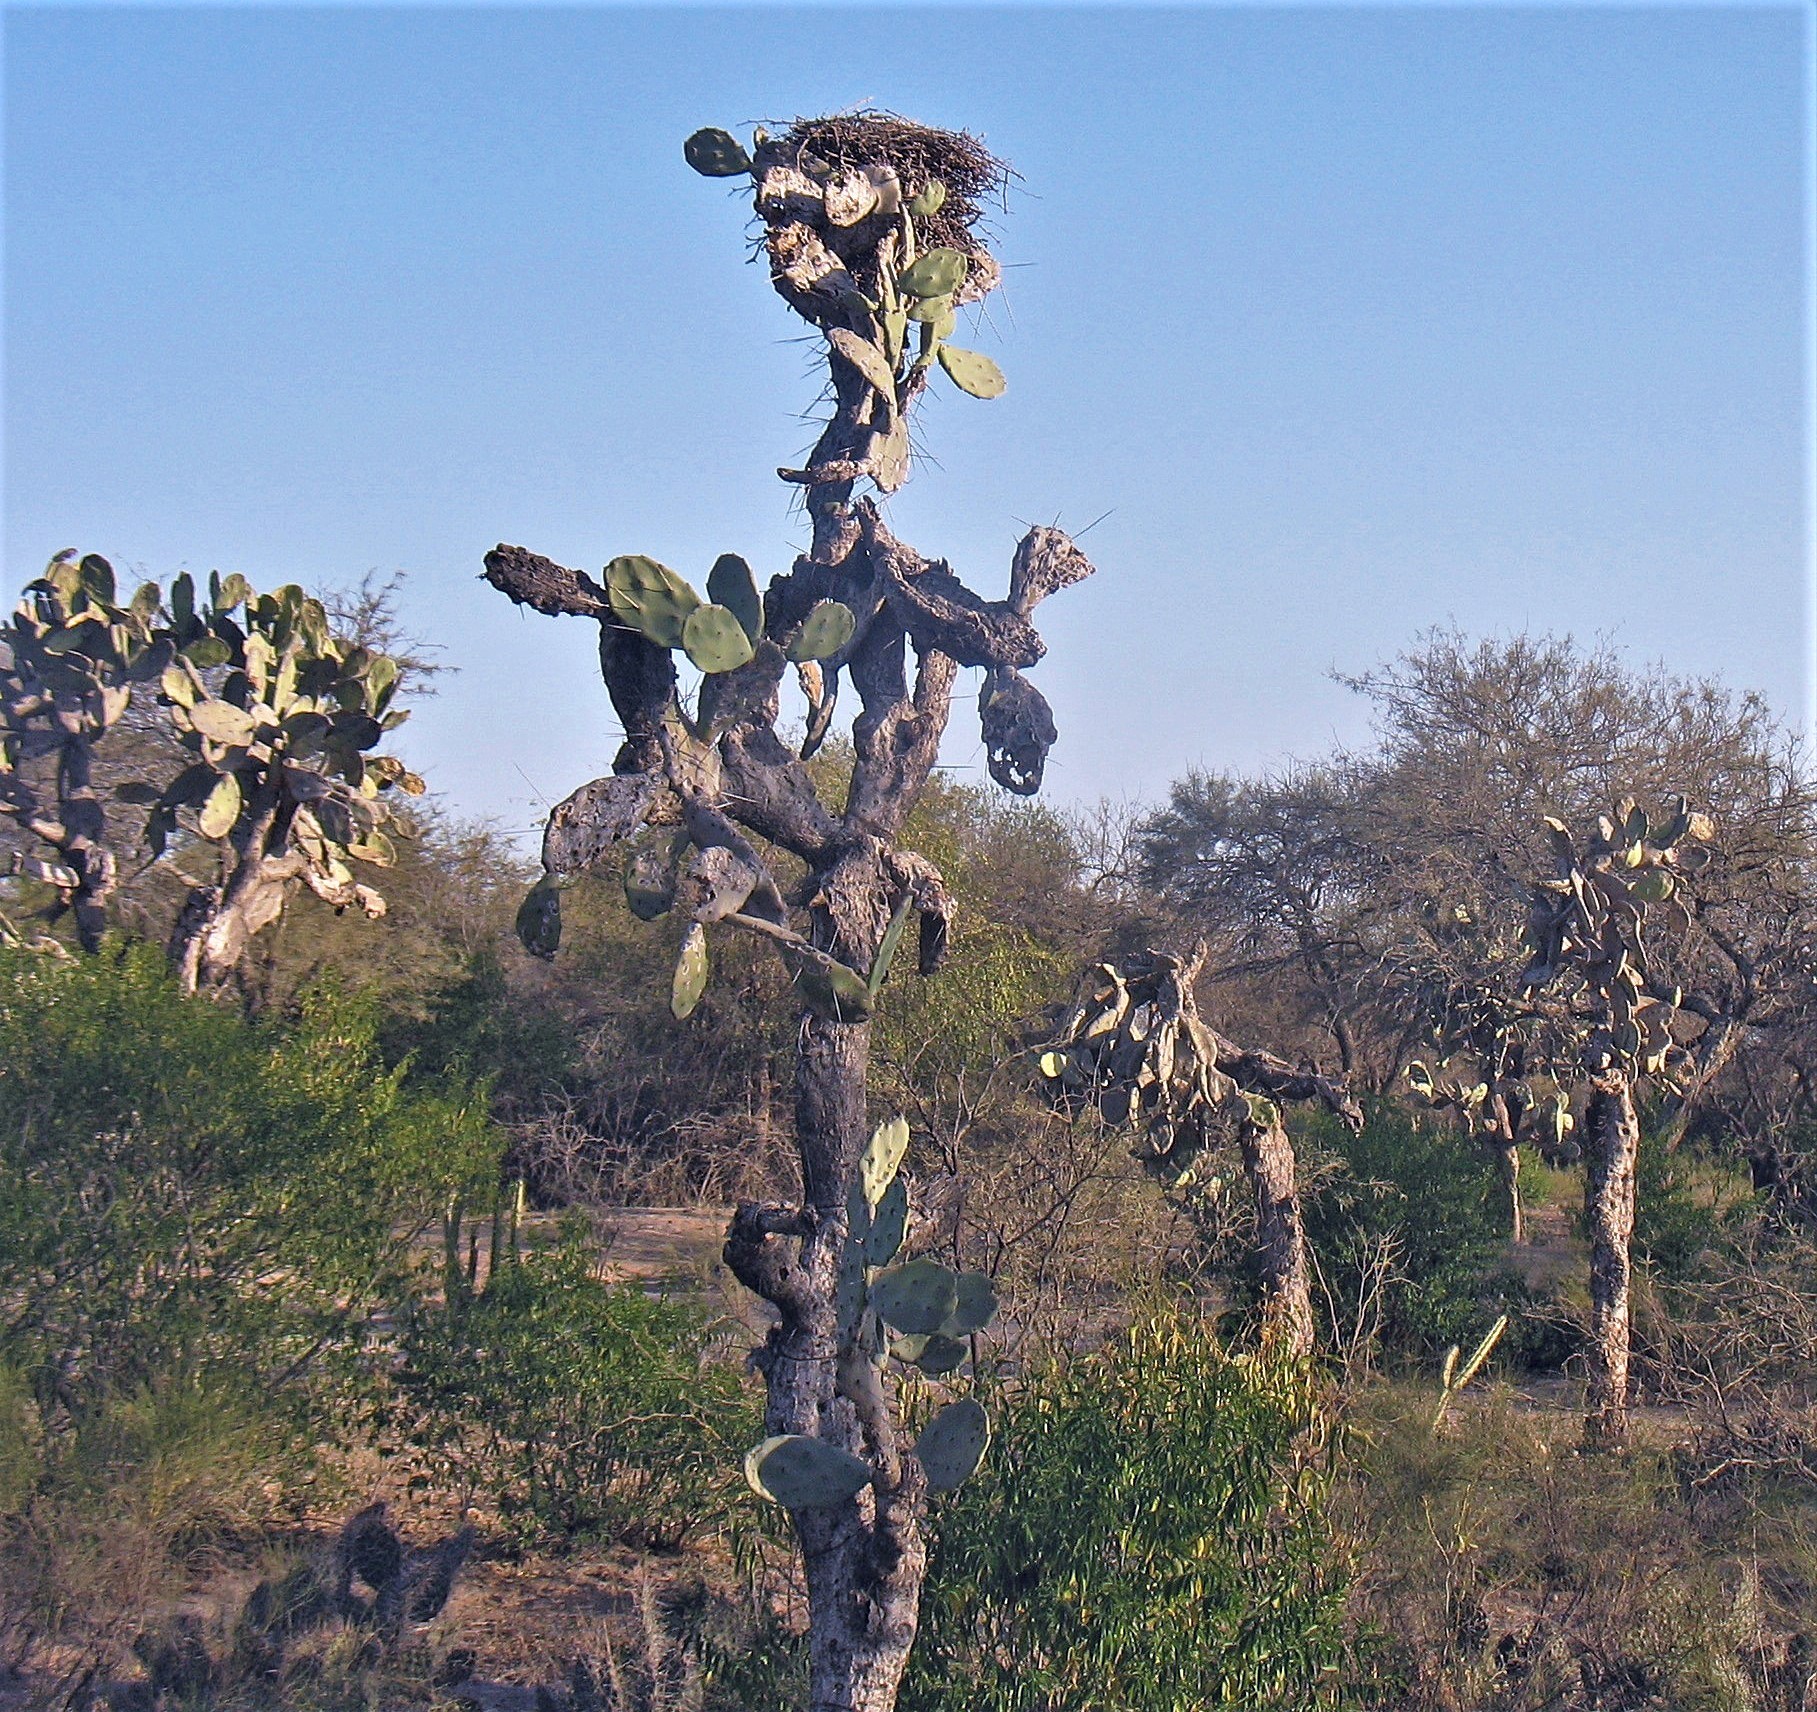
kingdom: Plantae
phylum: Tracheophyta
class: Magnoliopsida
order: Caryophyllales
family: Cactaceae
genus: Opuntia
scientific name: Opuntia quimilo
